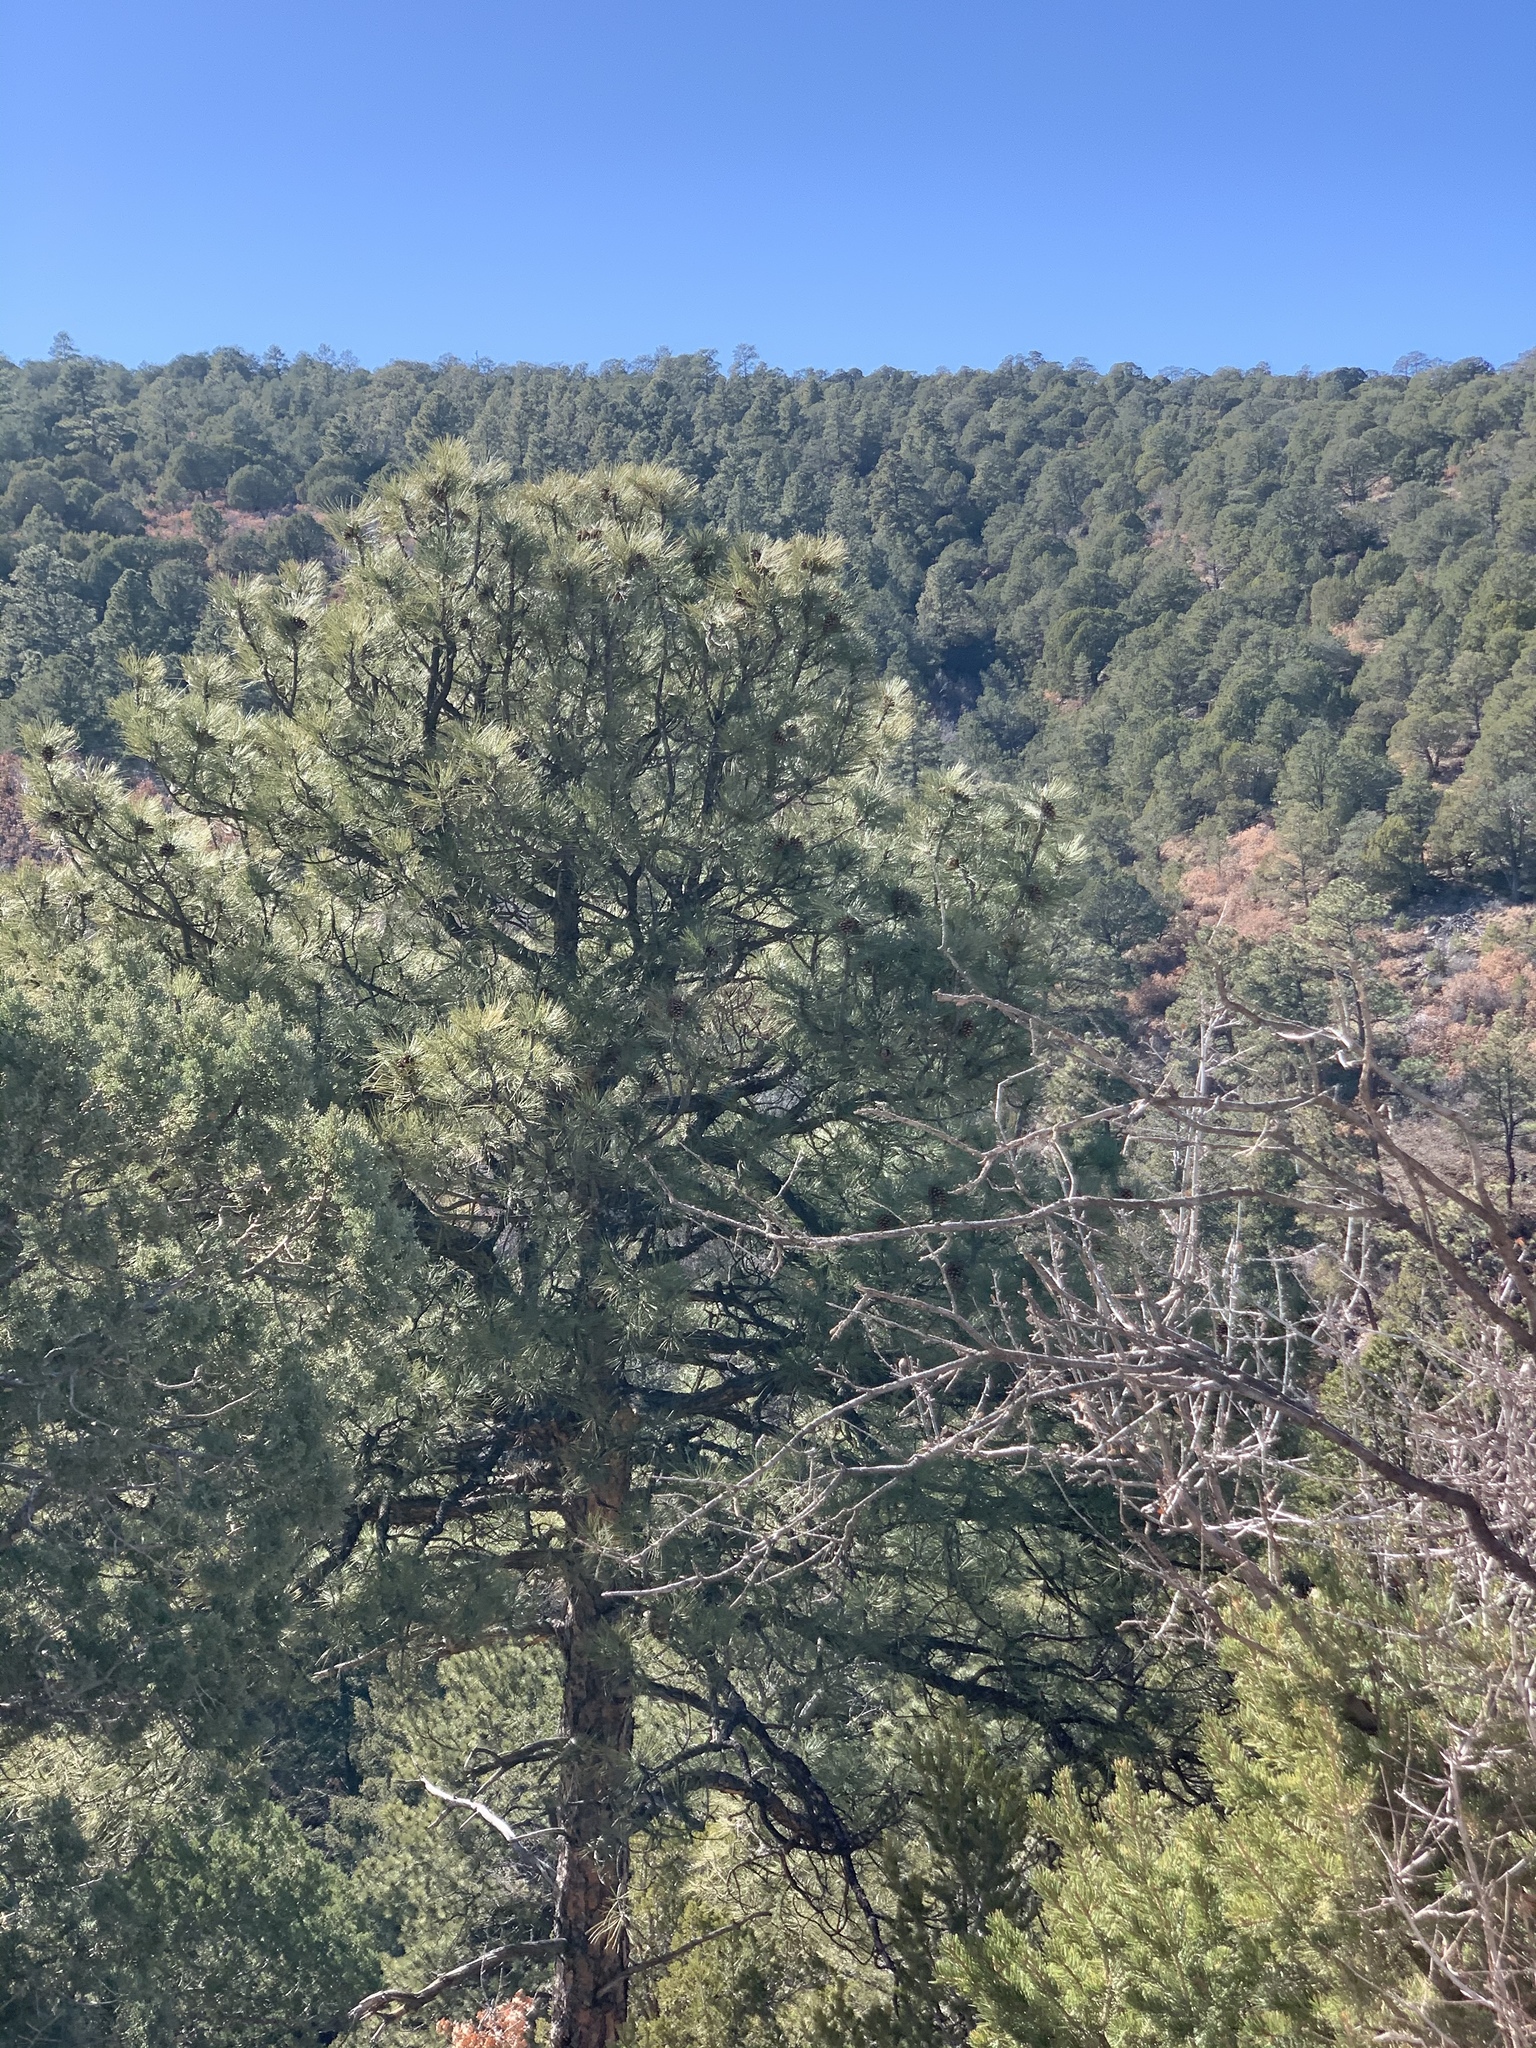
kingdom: Plantae
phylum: Tracheophyta
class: Pinopsida
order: Pinales
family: Pinaceae
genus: Pinus
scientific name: Pinus ponderosa
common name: Western yellow-pine
